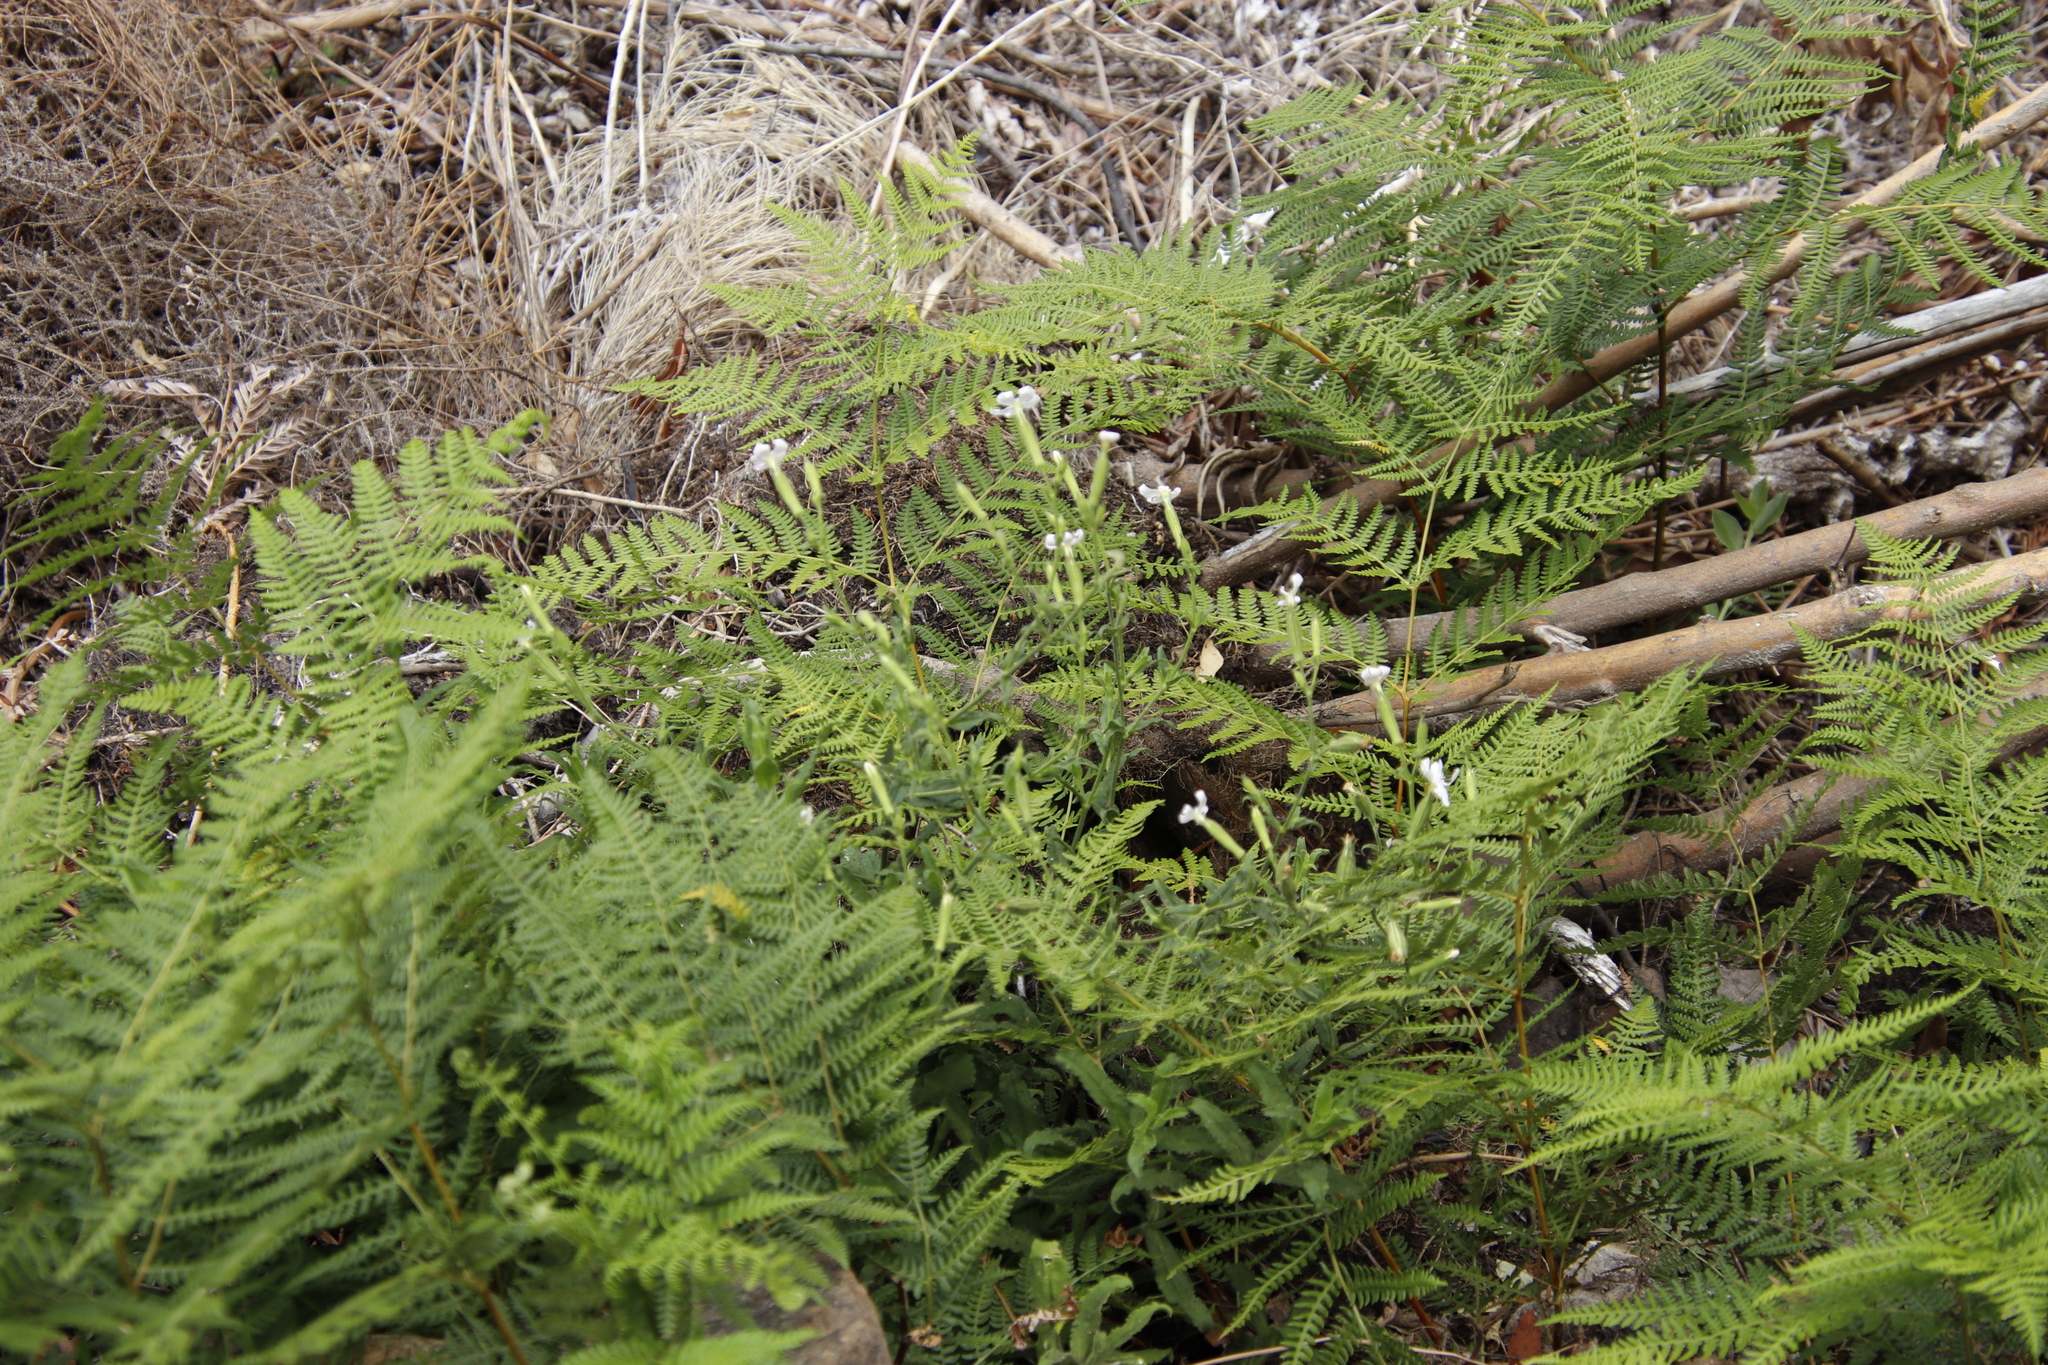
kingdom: Plantae
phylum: Tracheophyta
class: Magnoliopsida
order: Caryophyllales
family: Caryophyllaceae
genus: Silene
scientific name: Silene undulata
